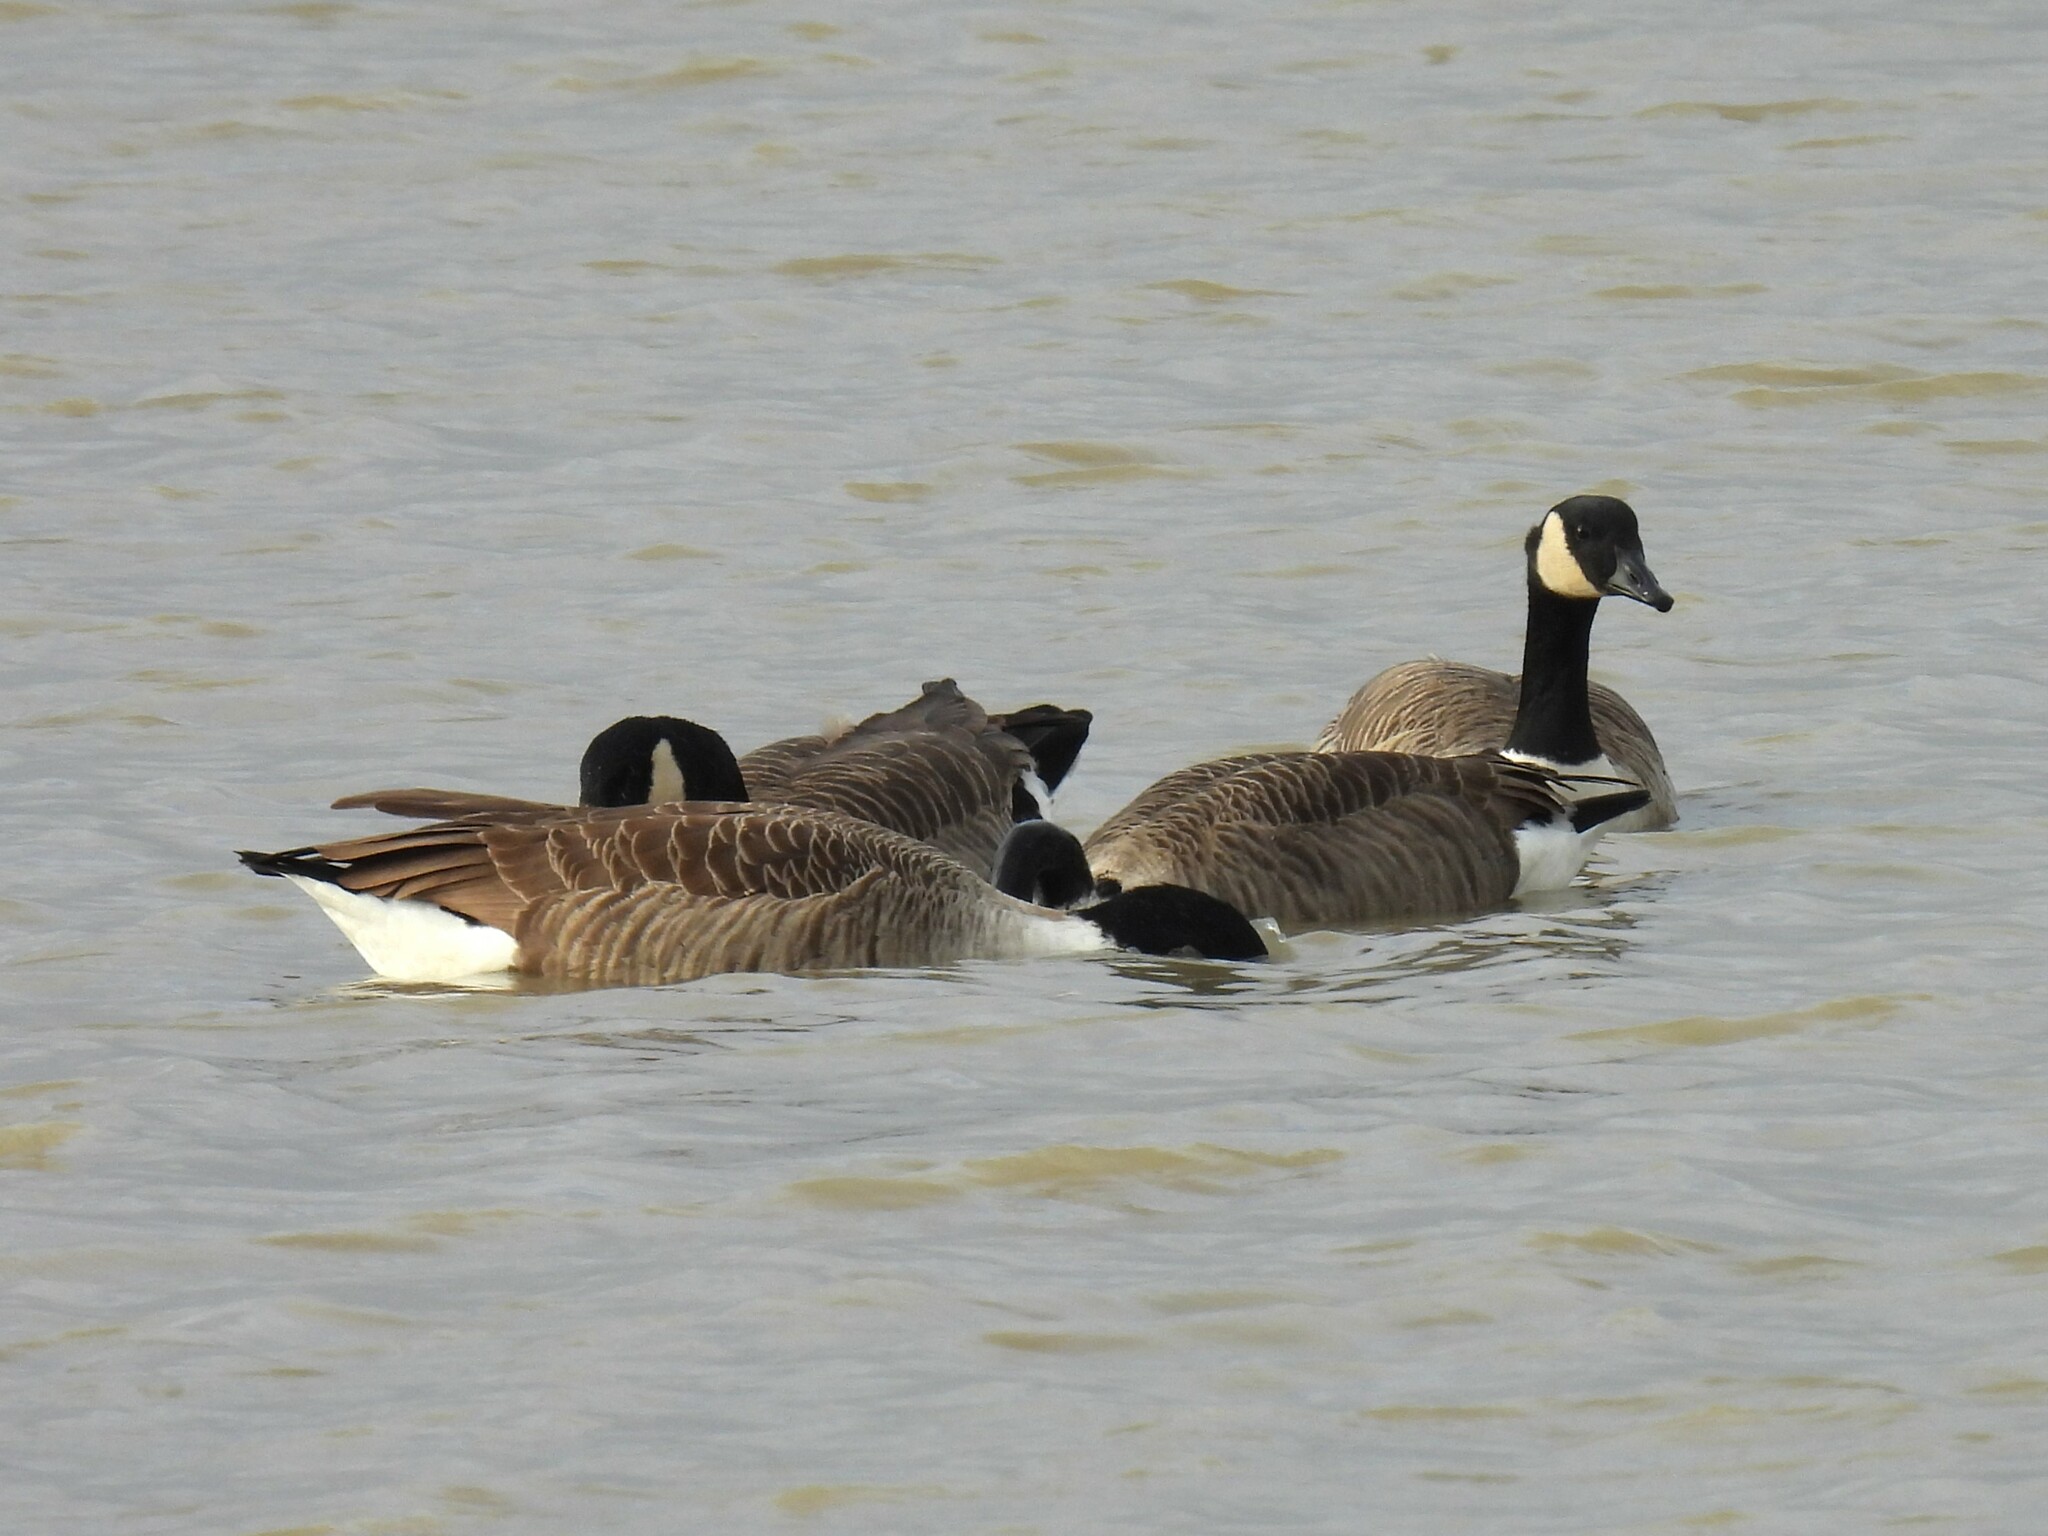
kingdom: Animalia
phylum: Chordata
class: Aves
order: Anseriformes
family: Anatidae
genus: Branta
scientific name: Branta canadensis
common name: Canada goose
